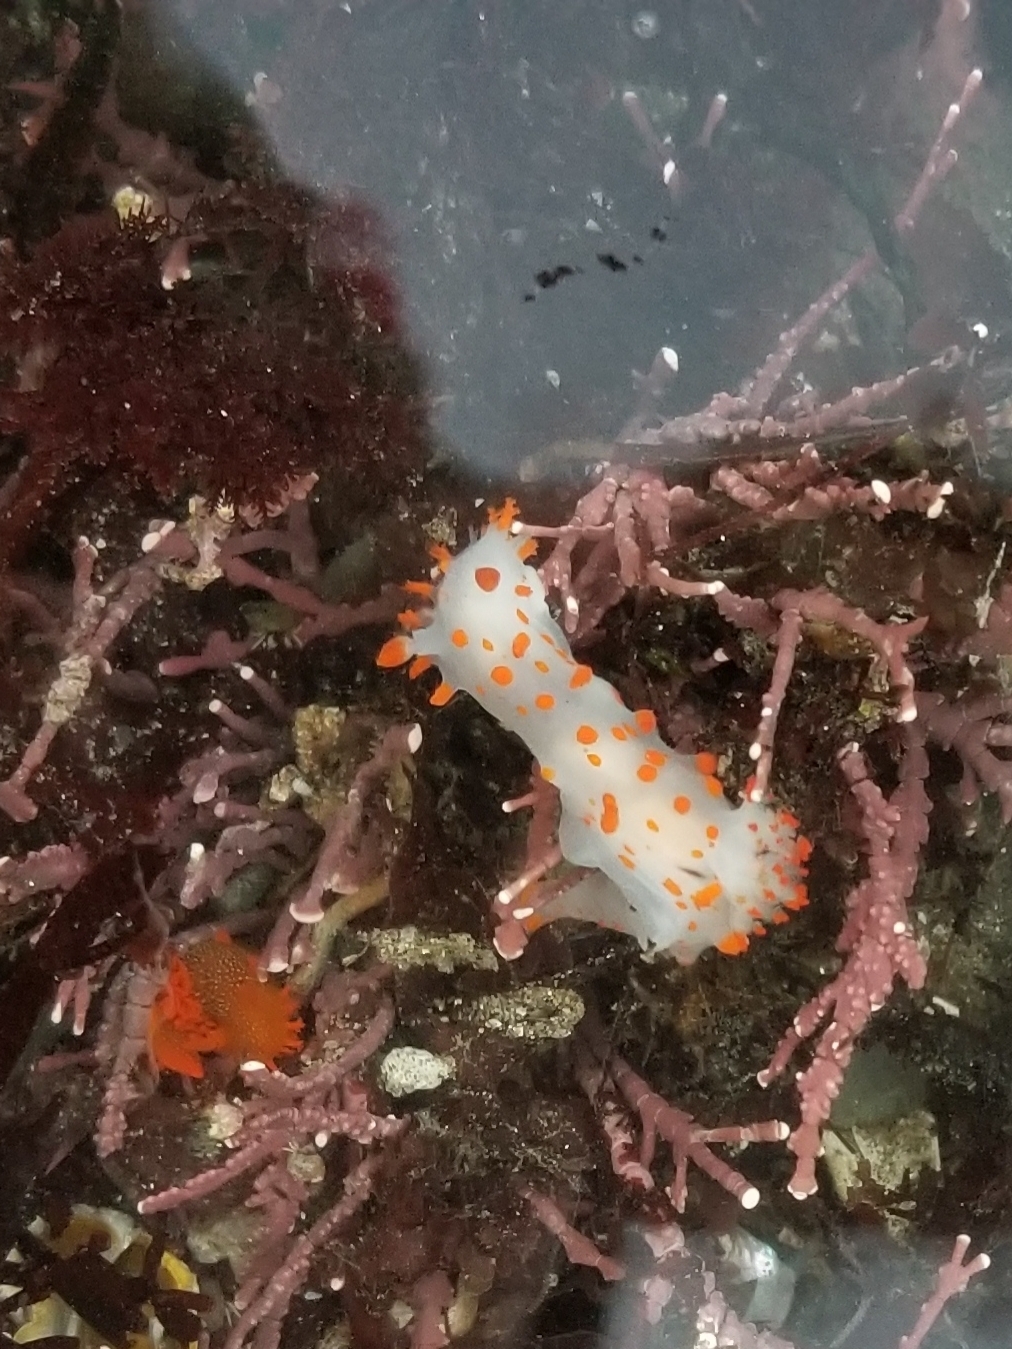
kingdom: Animalia
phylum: Mollusca
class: Gastropoda
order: Nudibranchia
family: Polyceridae
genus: Triopha
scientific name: Triopha catalinae
